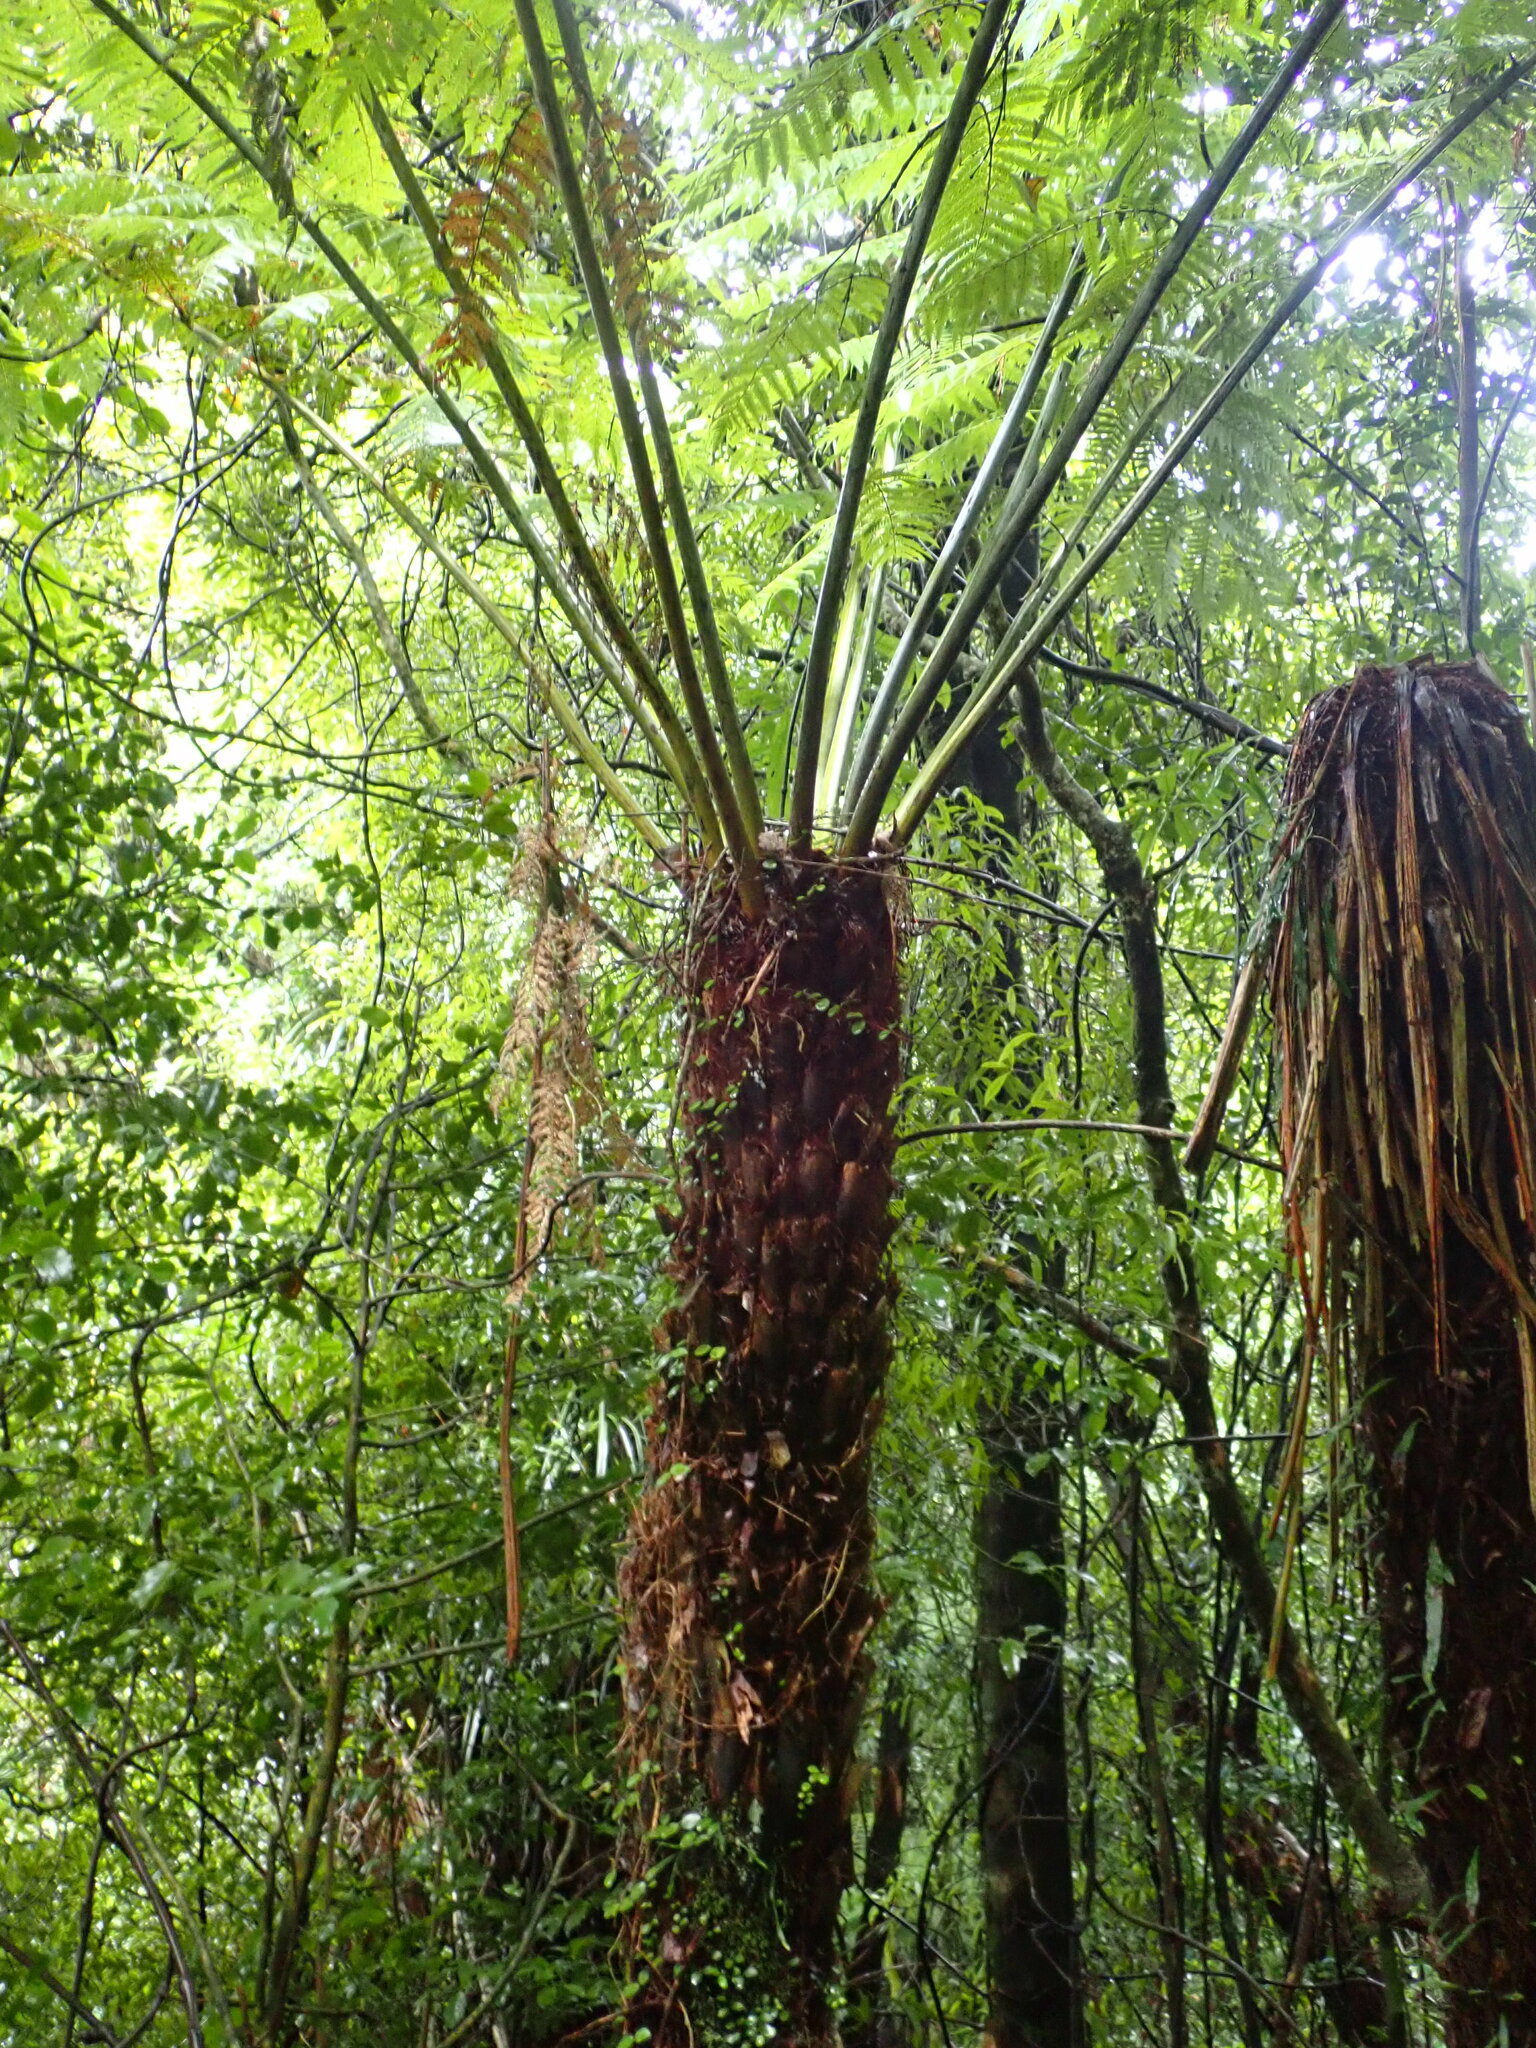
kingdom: Plantae
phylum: Tracheophyta
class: Polypodiopsida
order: Cyatheales
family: Cyatheaceae
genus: Alsophila
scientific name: Alsophila dealbata
